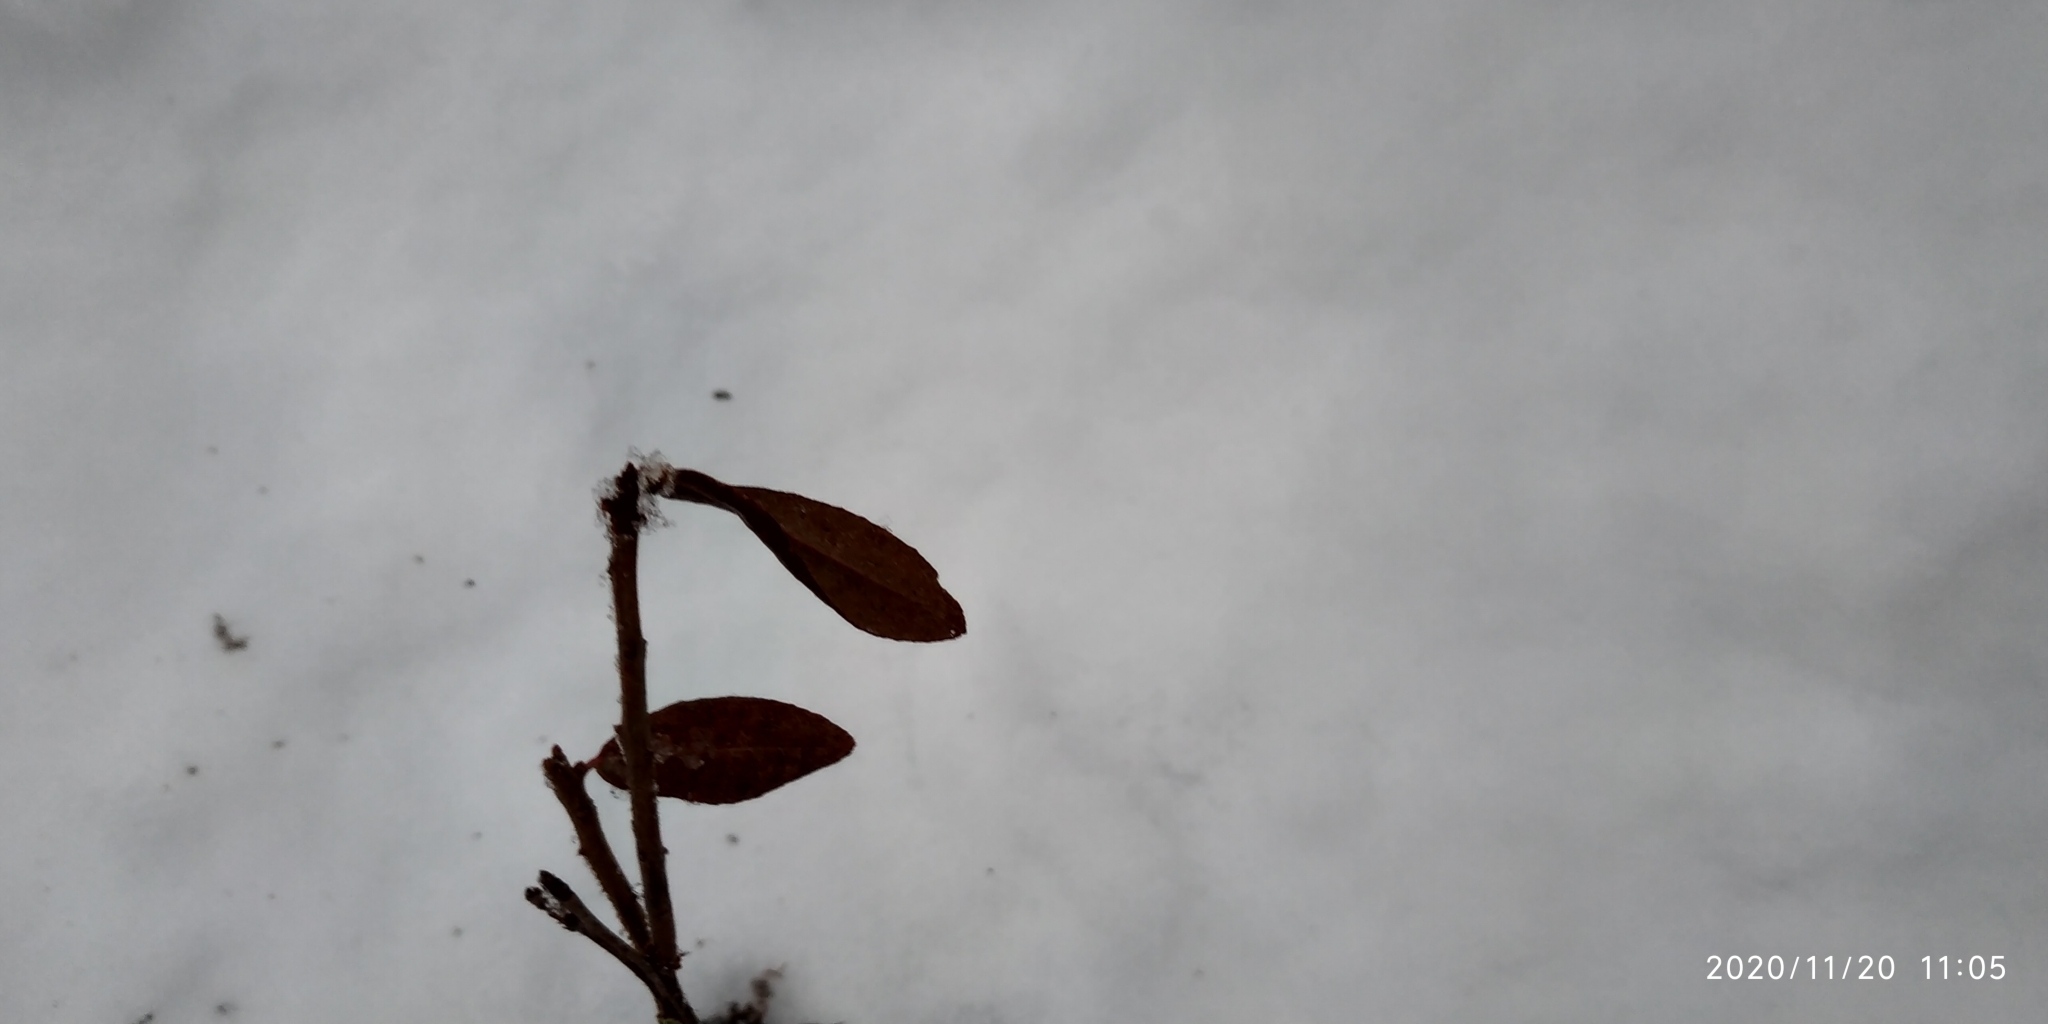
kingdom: Plantae
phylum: Tracheophyta
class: Magnoliopsida
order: Ericales
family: Ericaceae
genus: Chamaedaphne
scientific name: Chamaedaphne calyculata
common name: Leatherleaf
